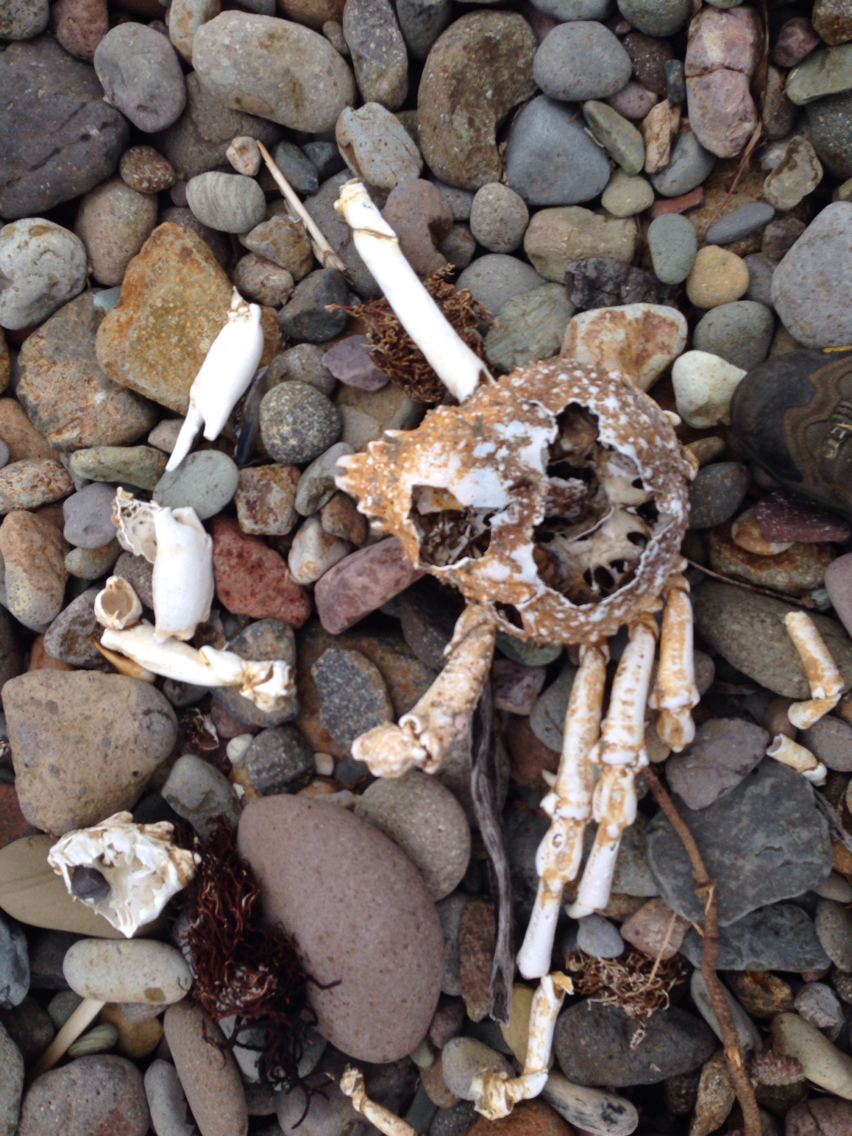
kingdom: Animalia
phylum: Arthropoda
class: Malacostraca
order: Decapoda
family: Epialtidae
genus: Loxorhynchus
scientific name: Loxorhynchus grandis
